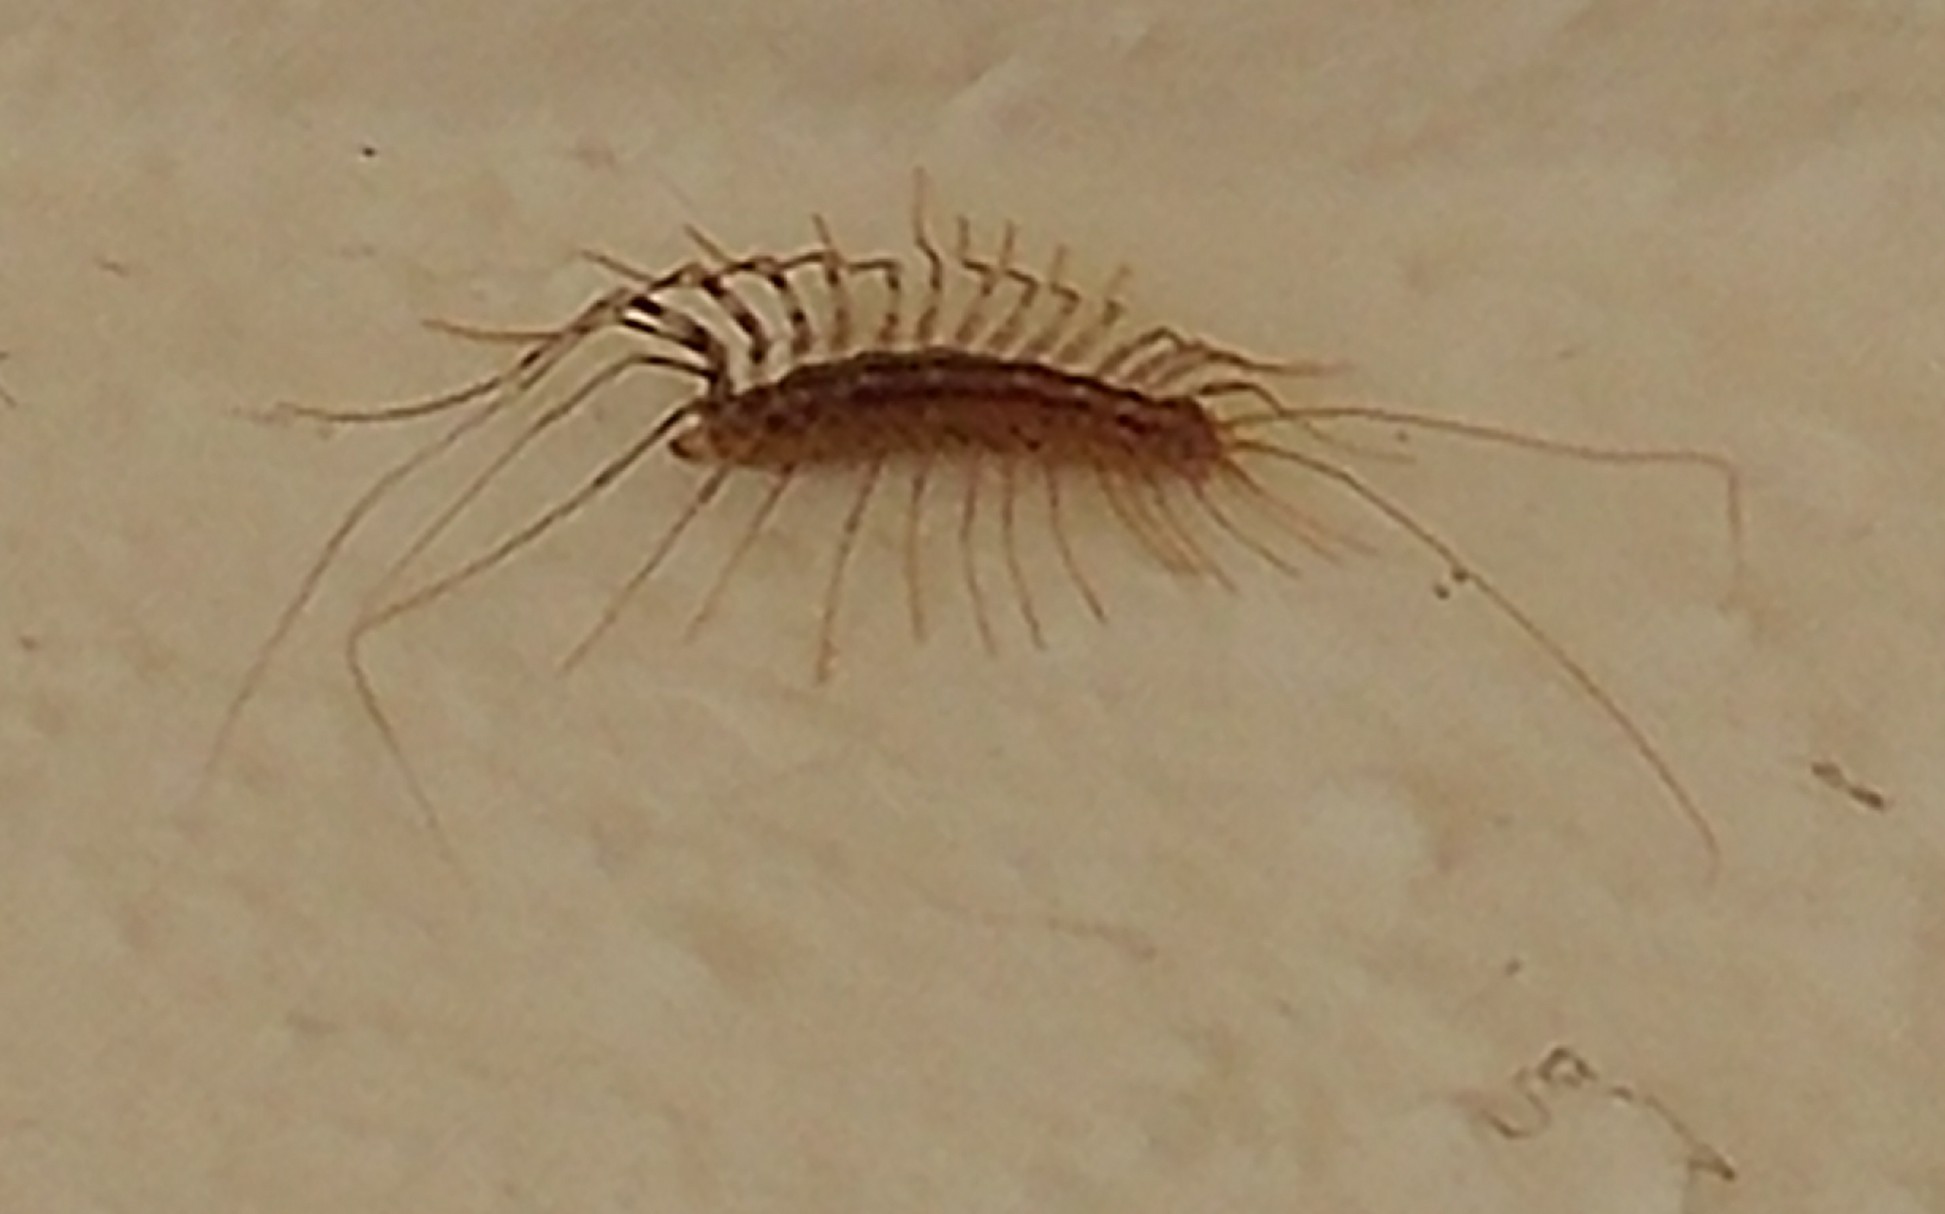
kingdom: Animalia
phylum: Arthropoda
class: Chilopoda
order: Scutigeromorpha
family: Scutigeridae
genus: Scutigera
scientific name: Scutigera coleoptrata
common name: House centipede
